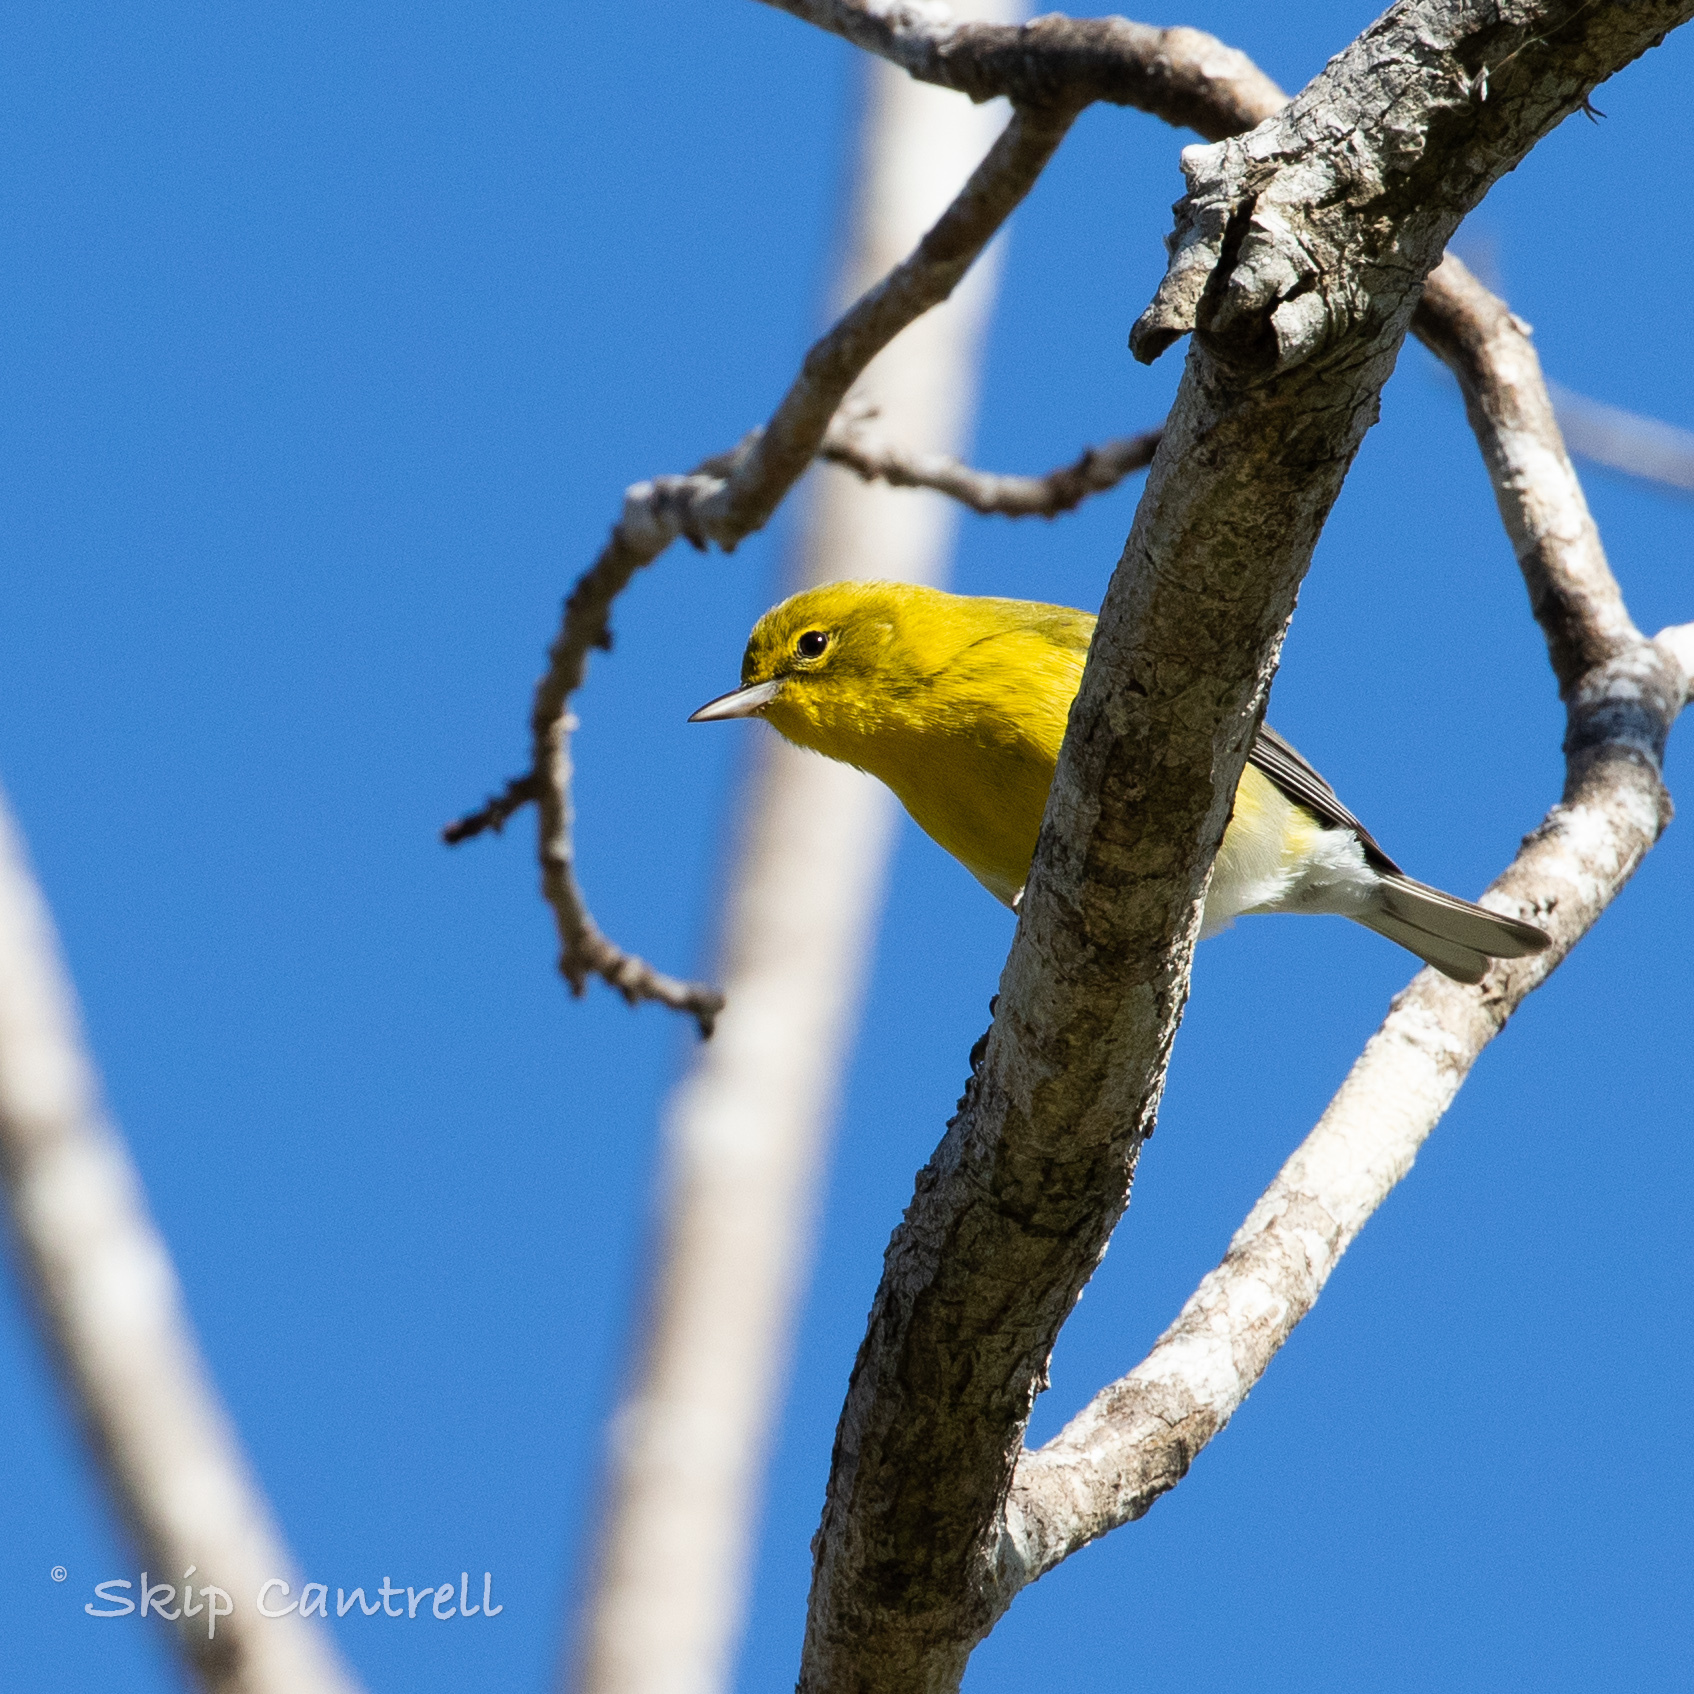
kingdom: Animalia
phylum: Chordata
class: Aves
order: Passeriformes
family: Parulidae
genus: Setophaga
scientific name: Setophaga pinus
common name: Pine warbler
